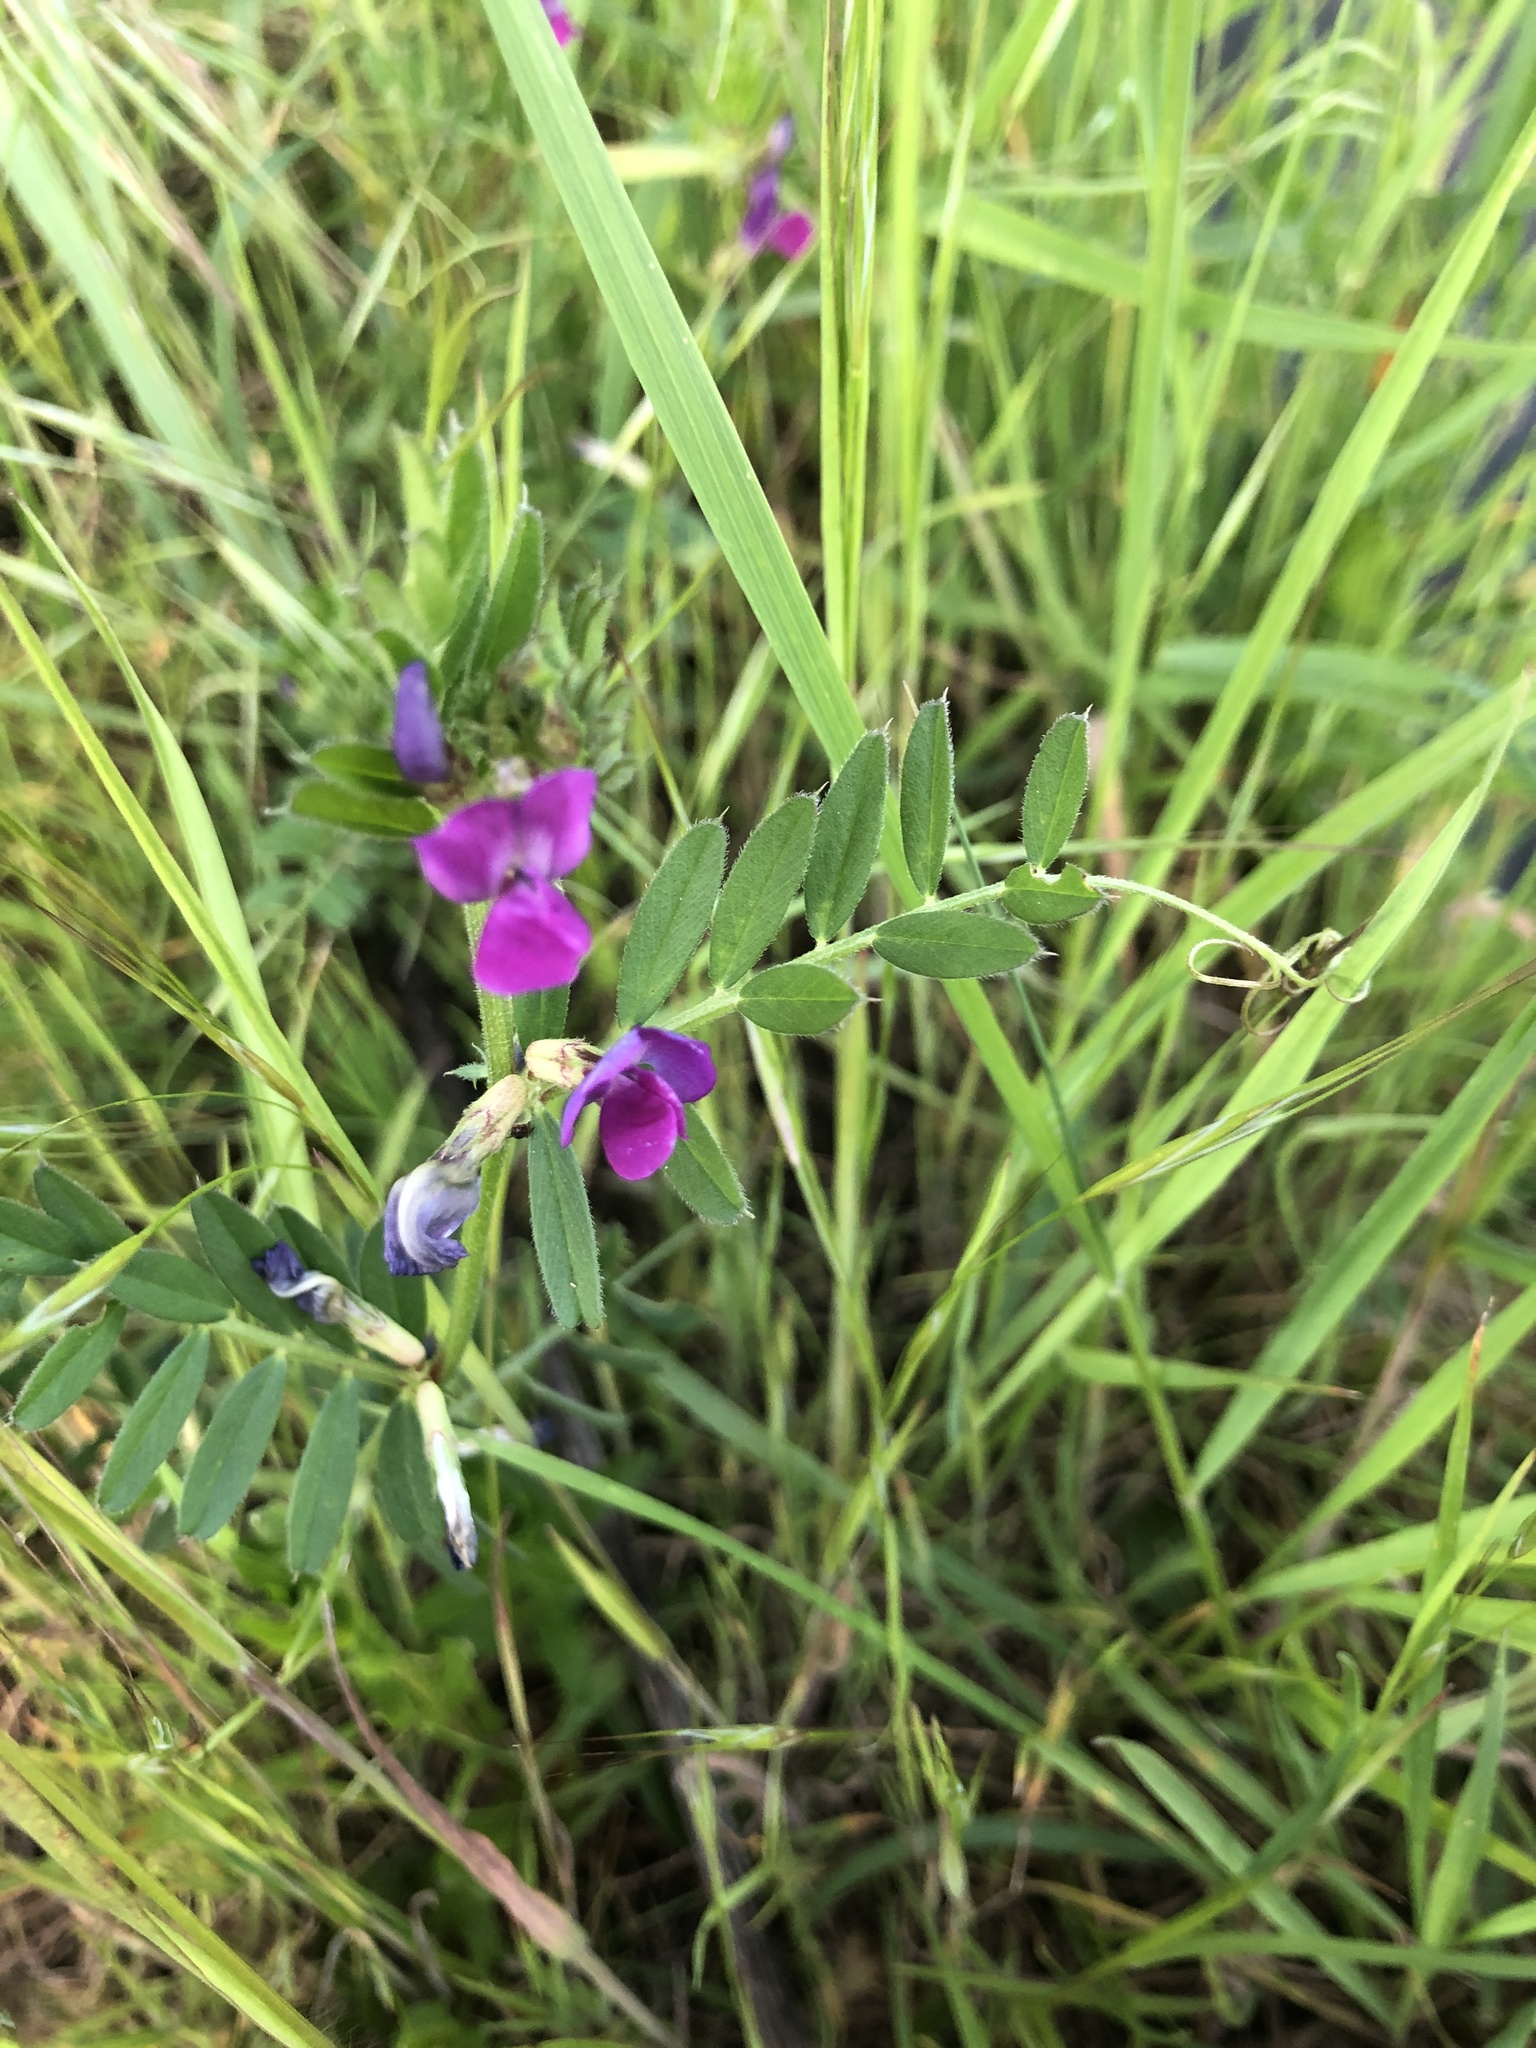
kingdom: Plantae
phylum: Tracheophyta
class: Magnoliopsida
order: Fabales
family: Fabaceae
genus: Vicia
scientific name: Vicia sativa
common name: Garden vetch
